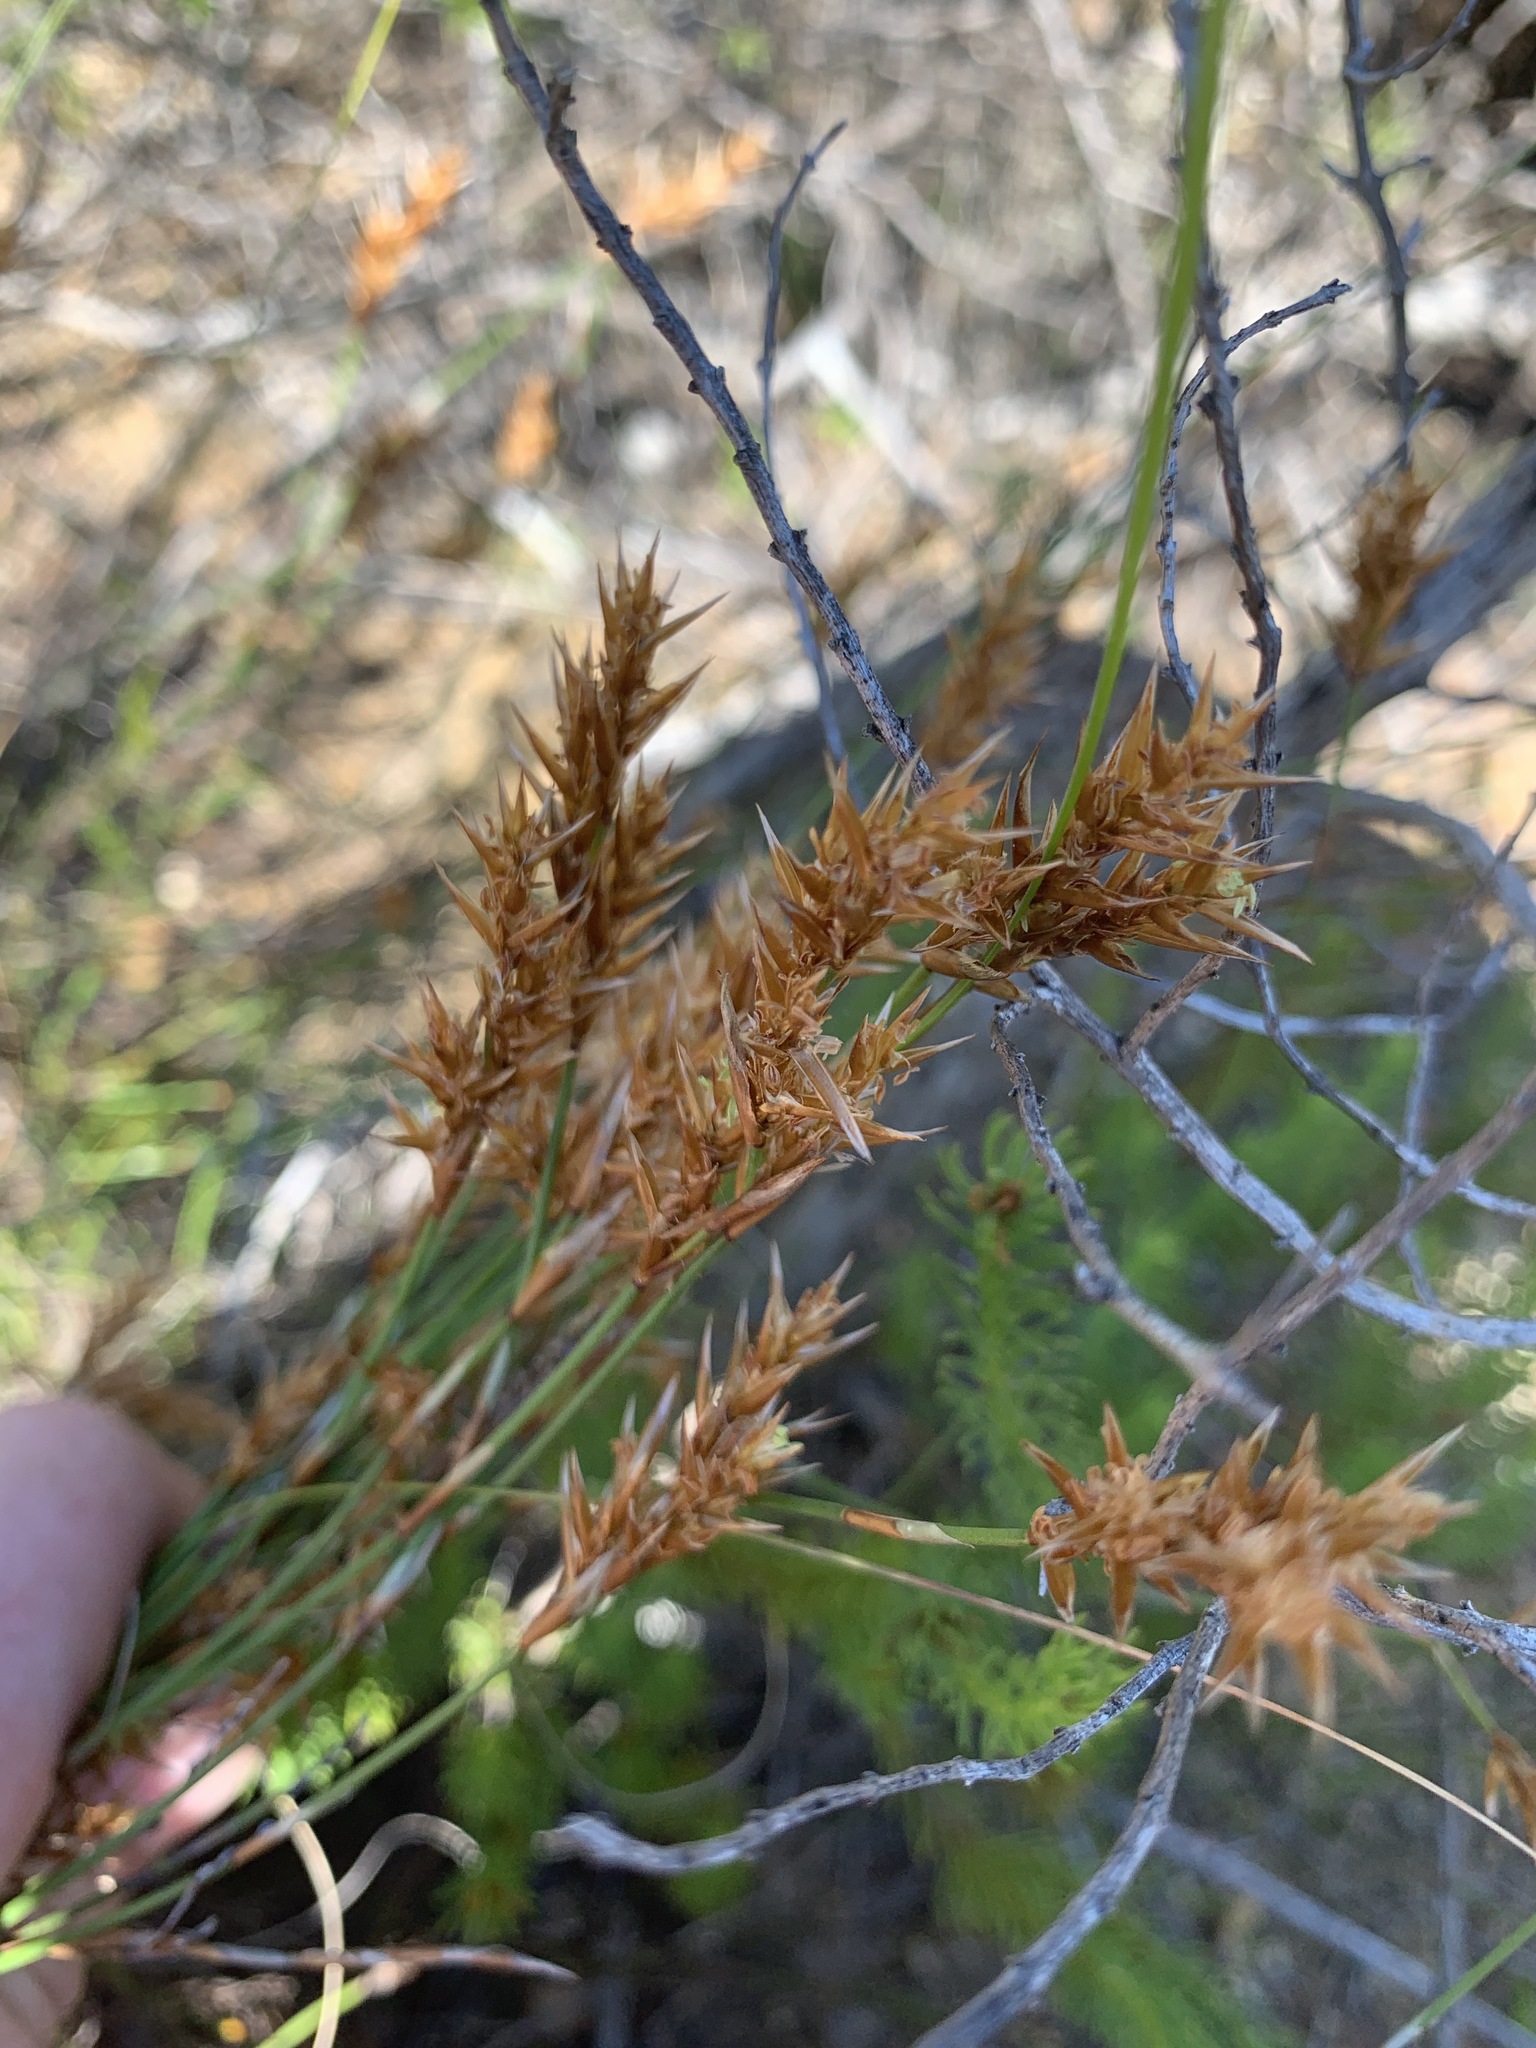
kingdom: Plantae
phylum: Tracheophyta
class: Liliopsida
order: Poales
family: Restionaceae
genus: Restio
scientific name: Restio distichus
